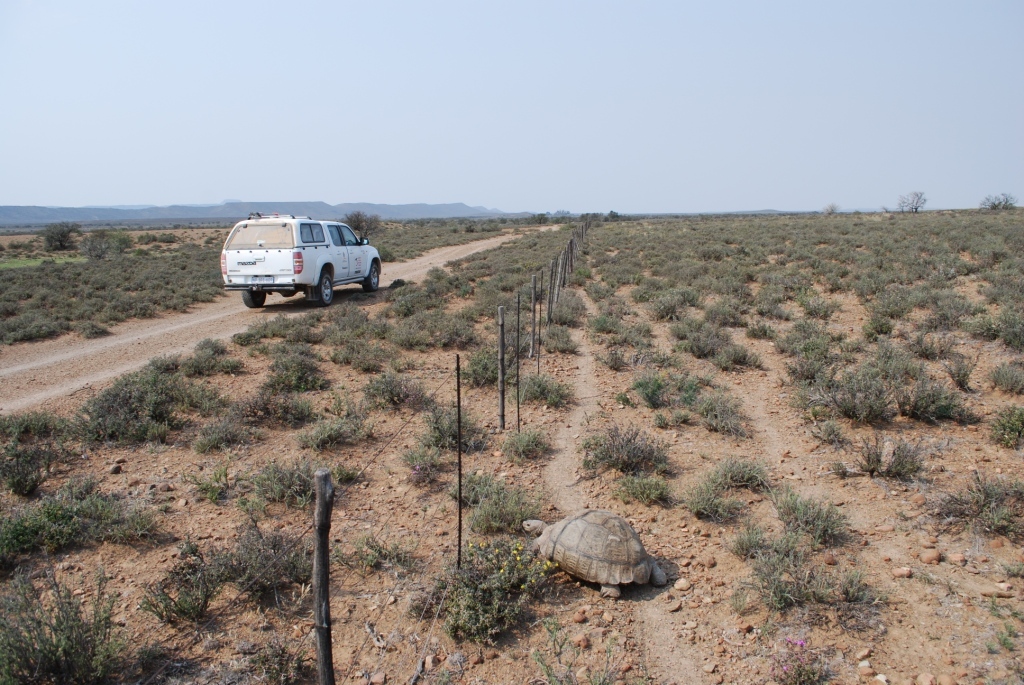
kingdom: Animalia
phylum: Chordata
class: Testudines
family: Testudinidae
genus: Stigmochelys
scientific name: Stigmochelys pardalis
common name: Leopard tortoise
